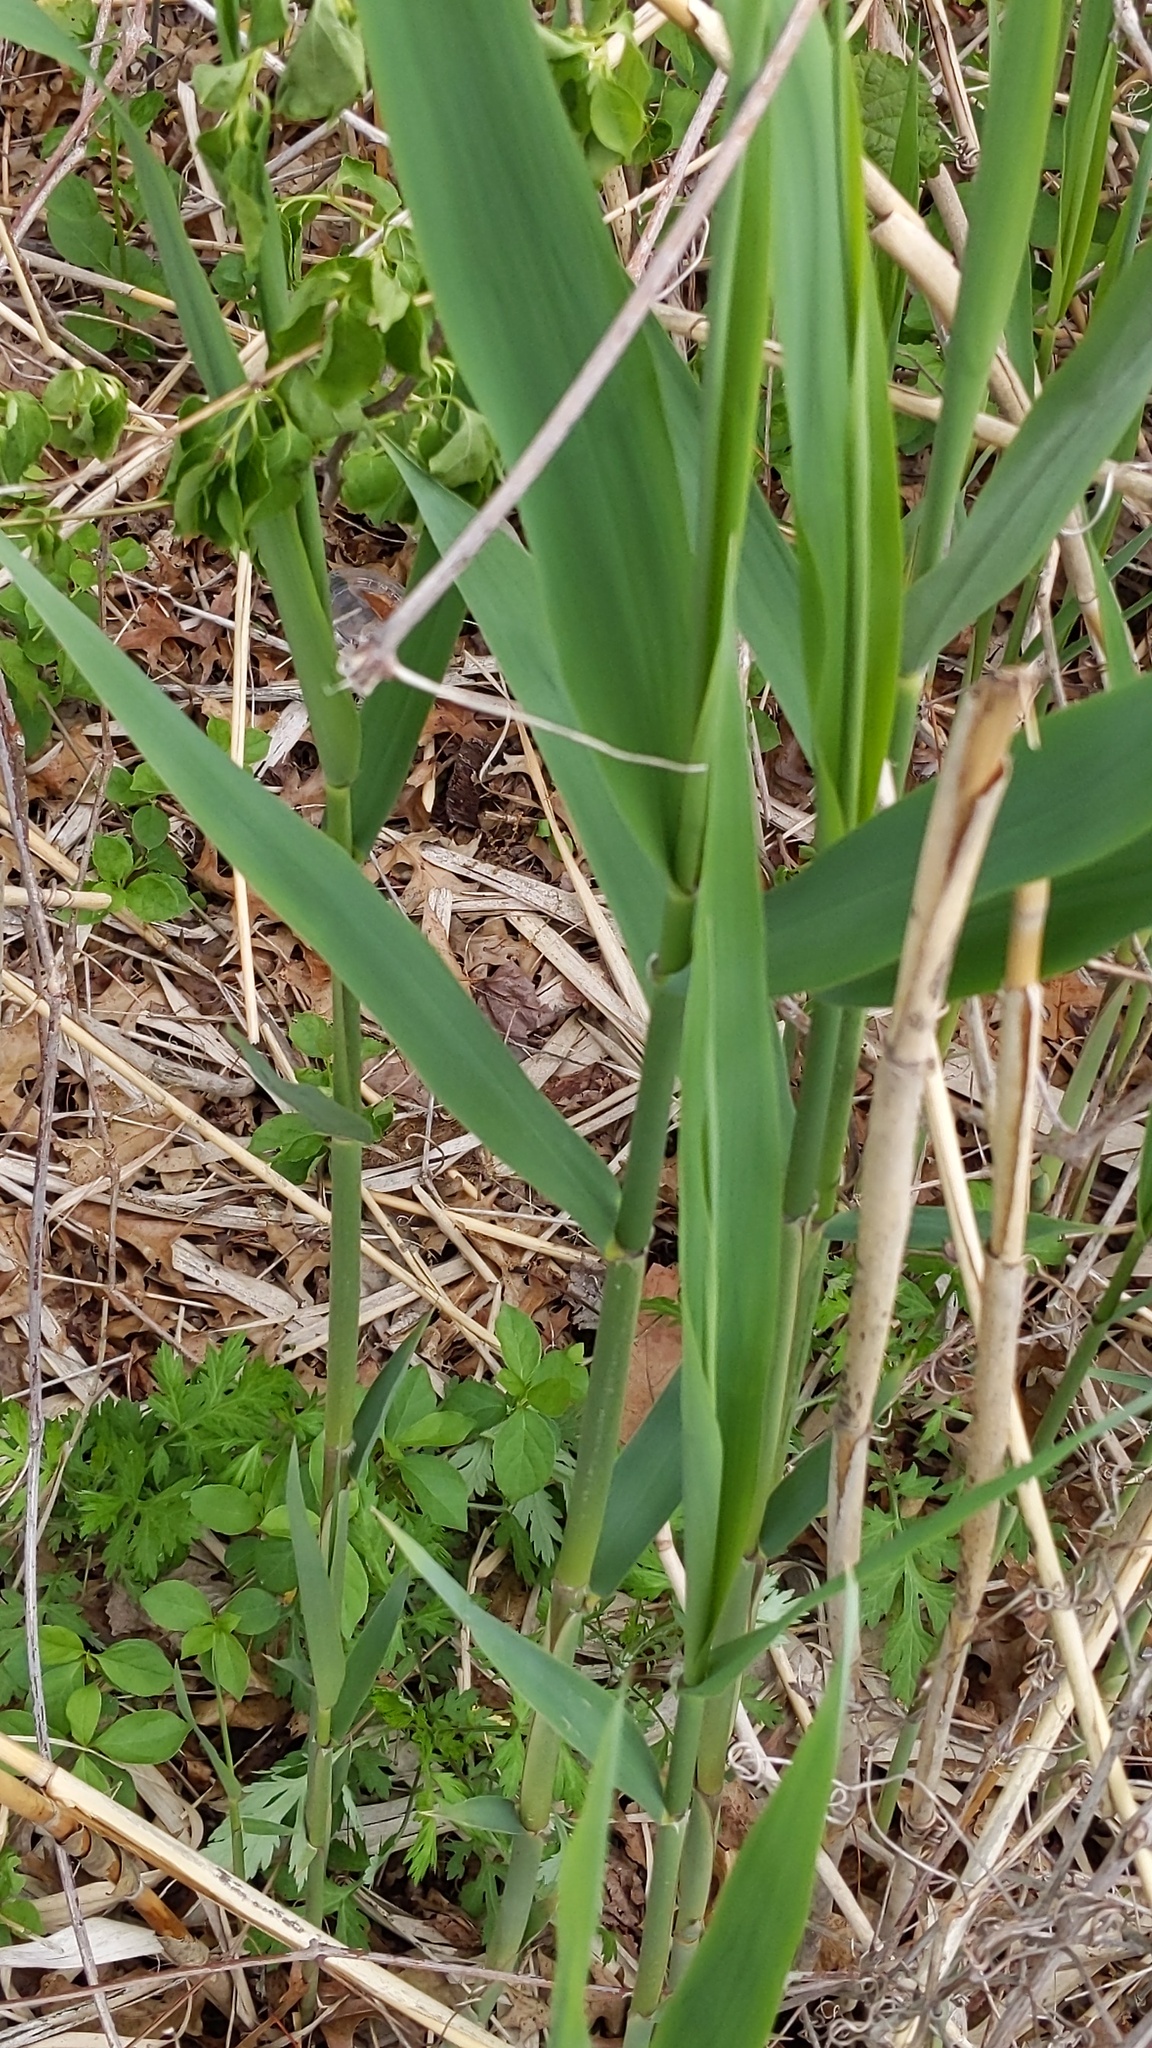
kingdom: Plantae
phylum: Tracheophyta
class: Liliopsida
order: Poales
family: Poaceae
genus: Phragmites
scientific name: Phragmites australis
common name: Common reed
